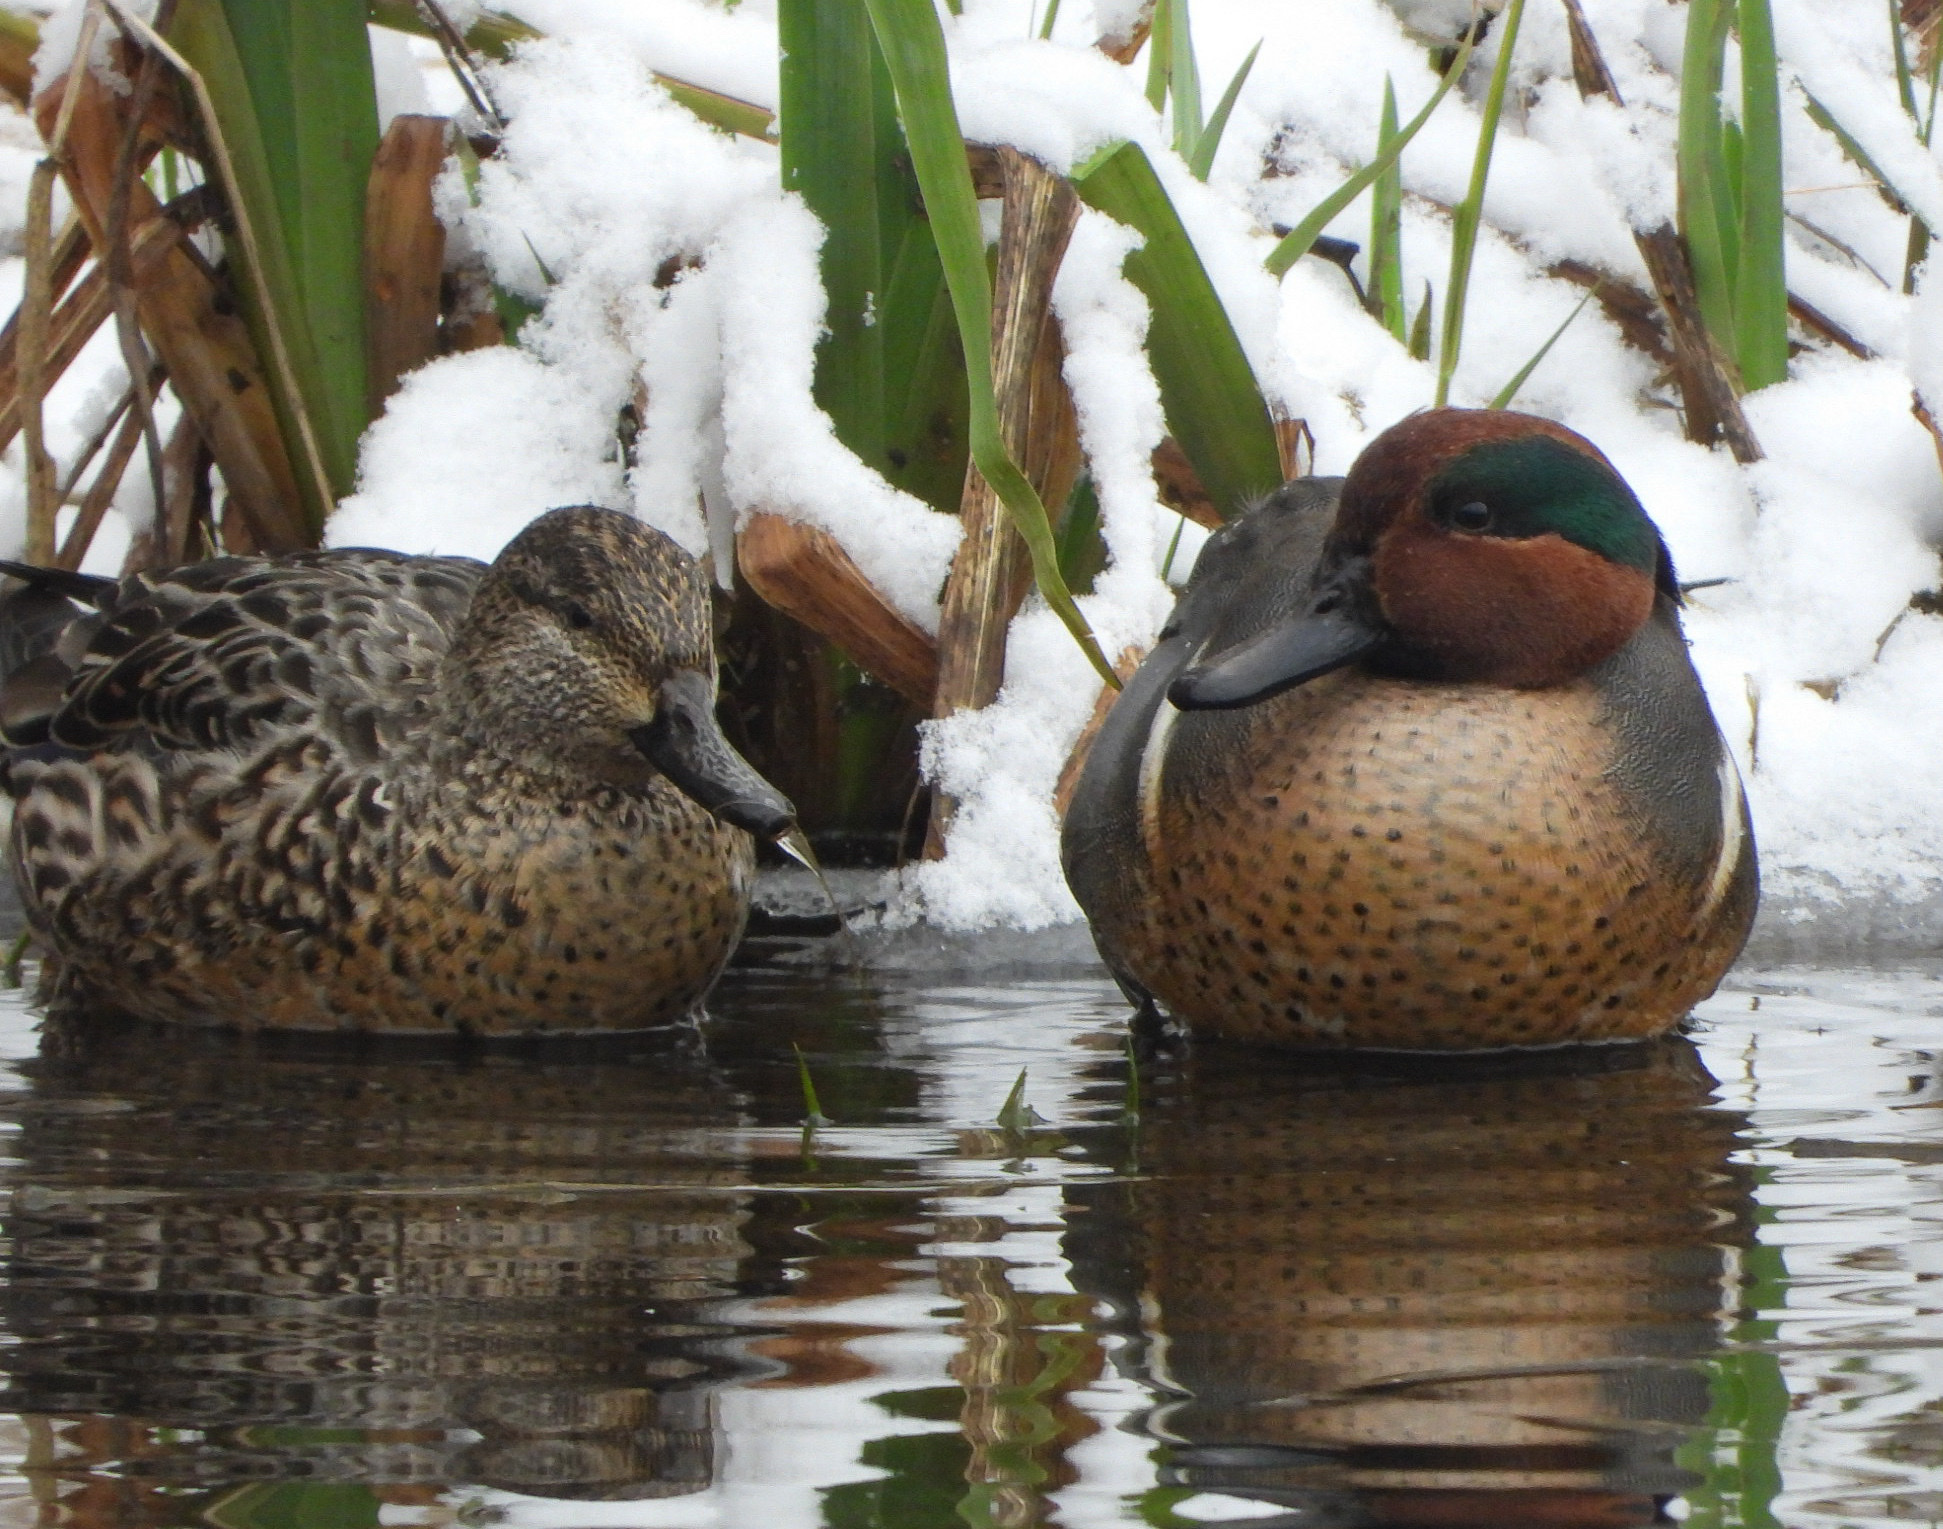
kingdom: Animalia
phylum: Chordata
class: Aves
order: Anseriformes
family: Anatidae
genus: Anas
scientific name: Anas carolinensis
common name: Green-winged teal
